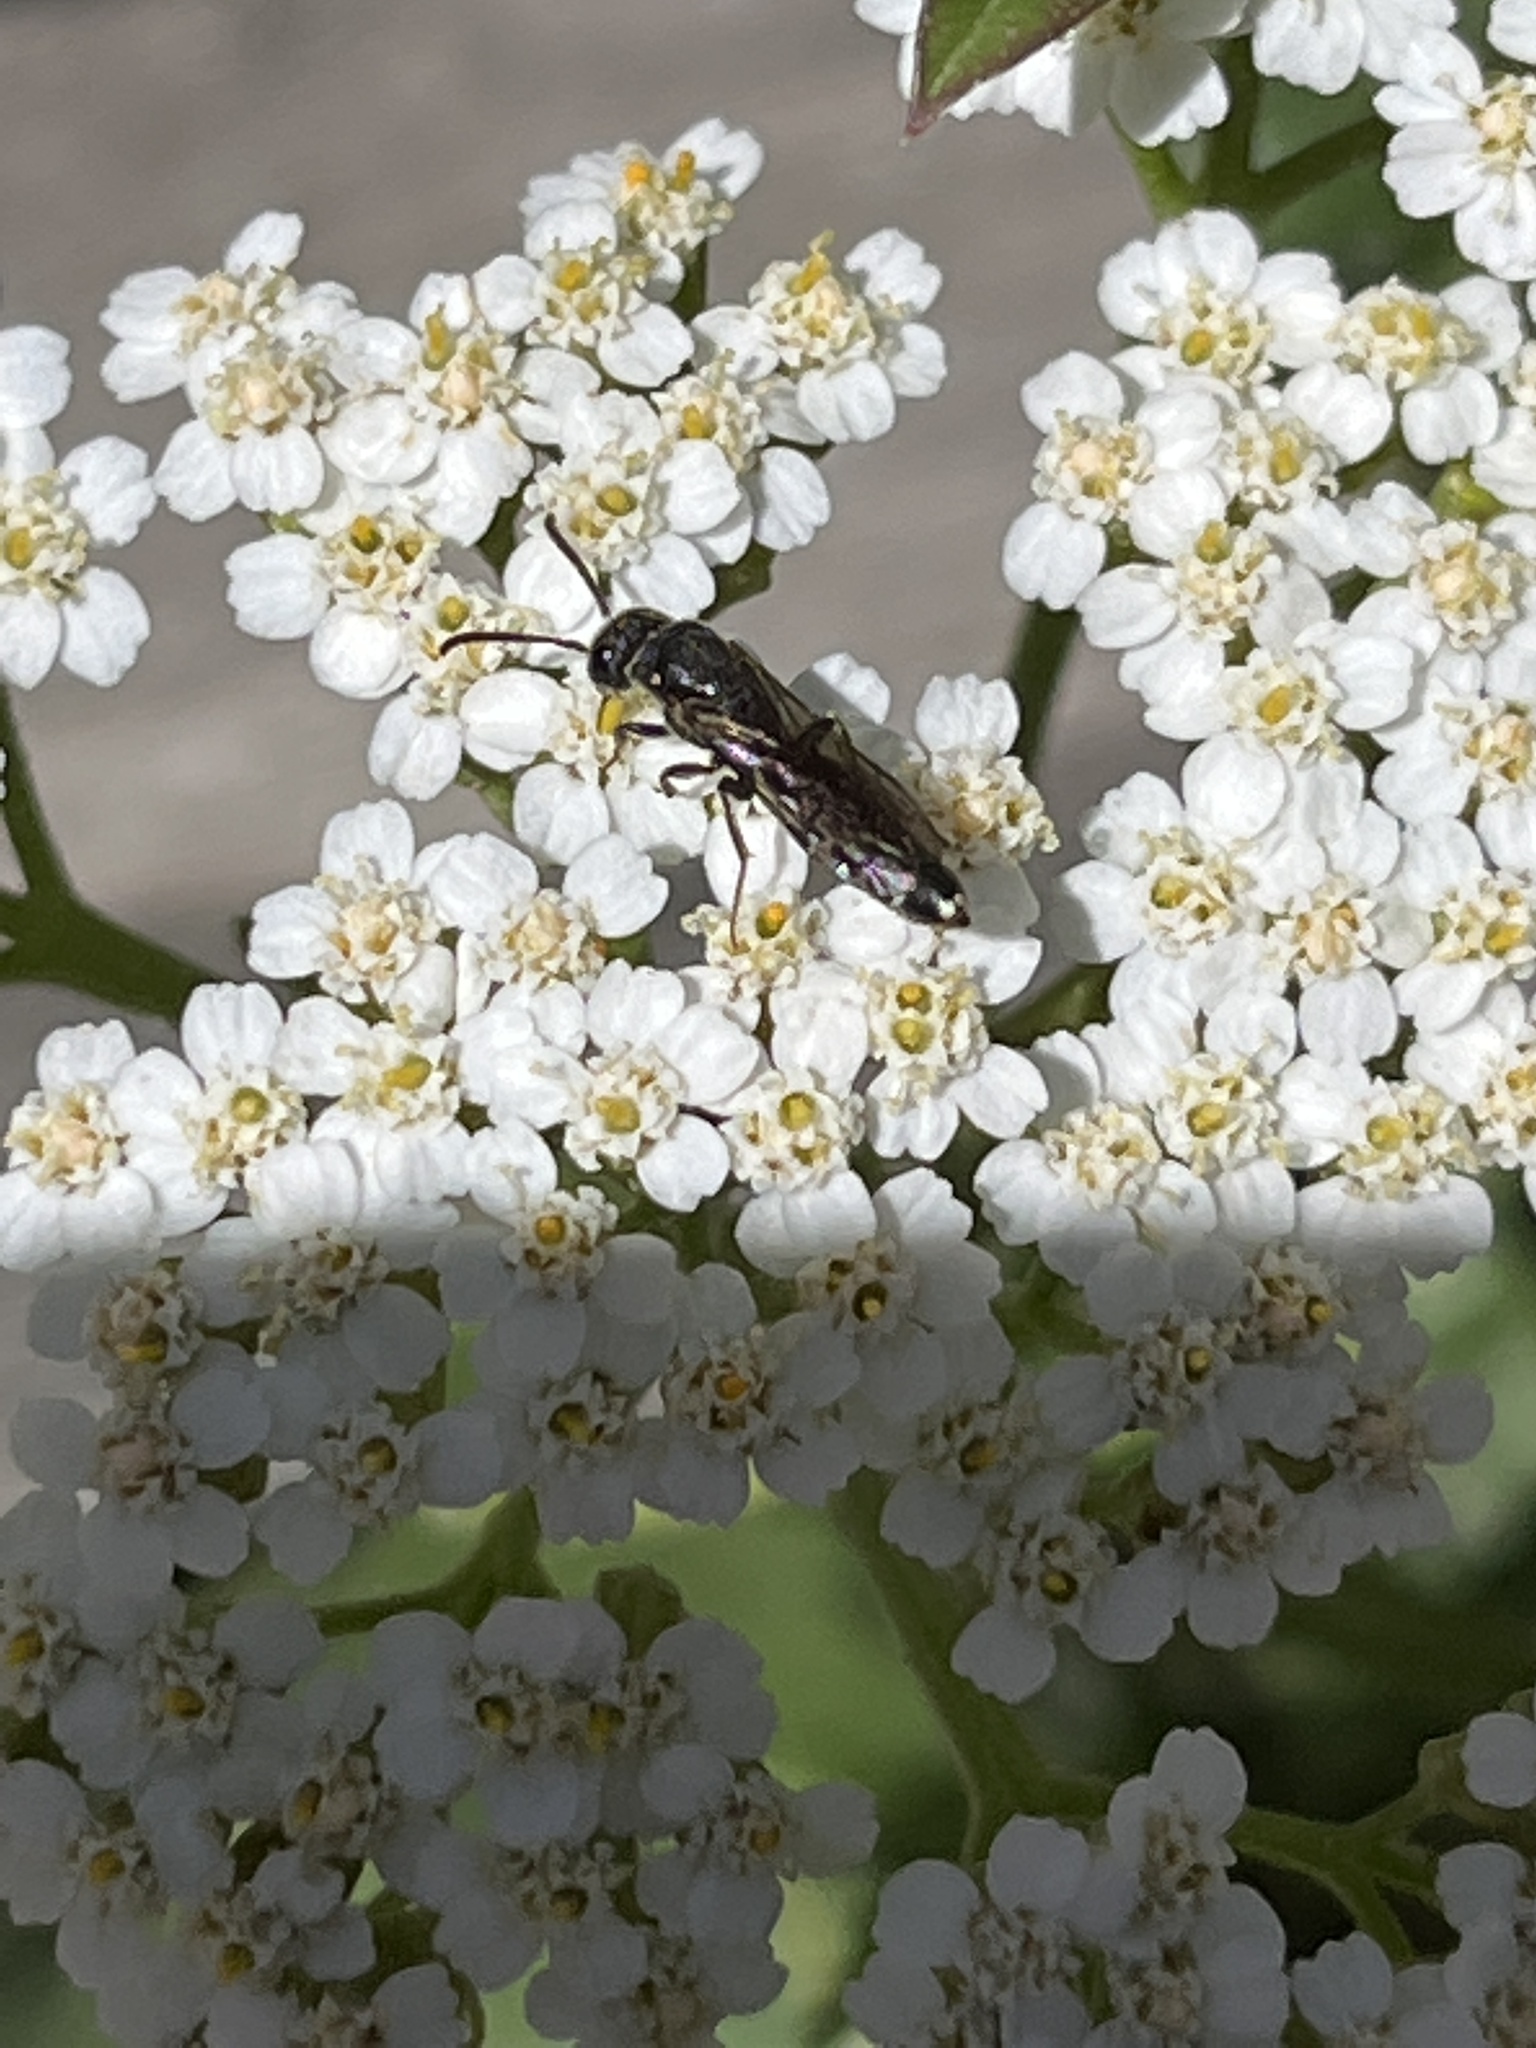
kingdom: Animalia
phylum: Arthropoda
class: Insecta
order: Hymenoptera
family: Sapygidae
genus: Sapygina
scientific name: Sapygina decemguttata
